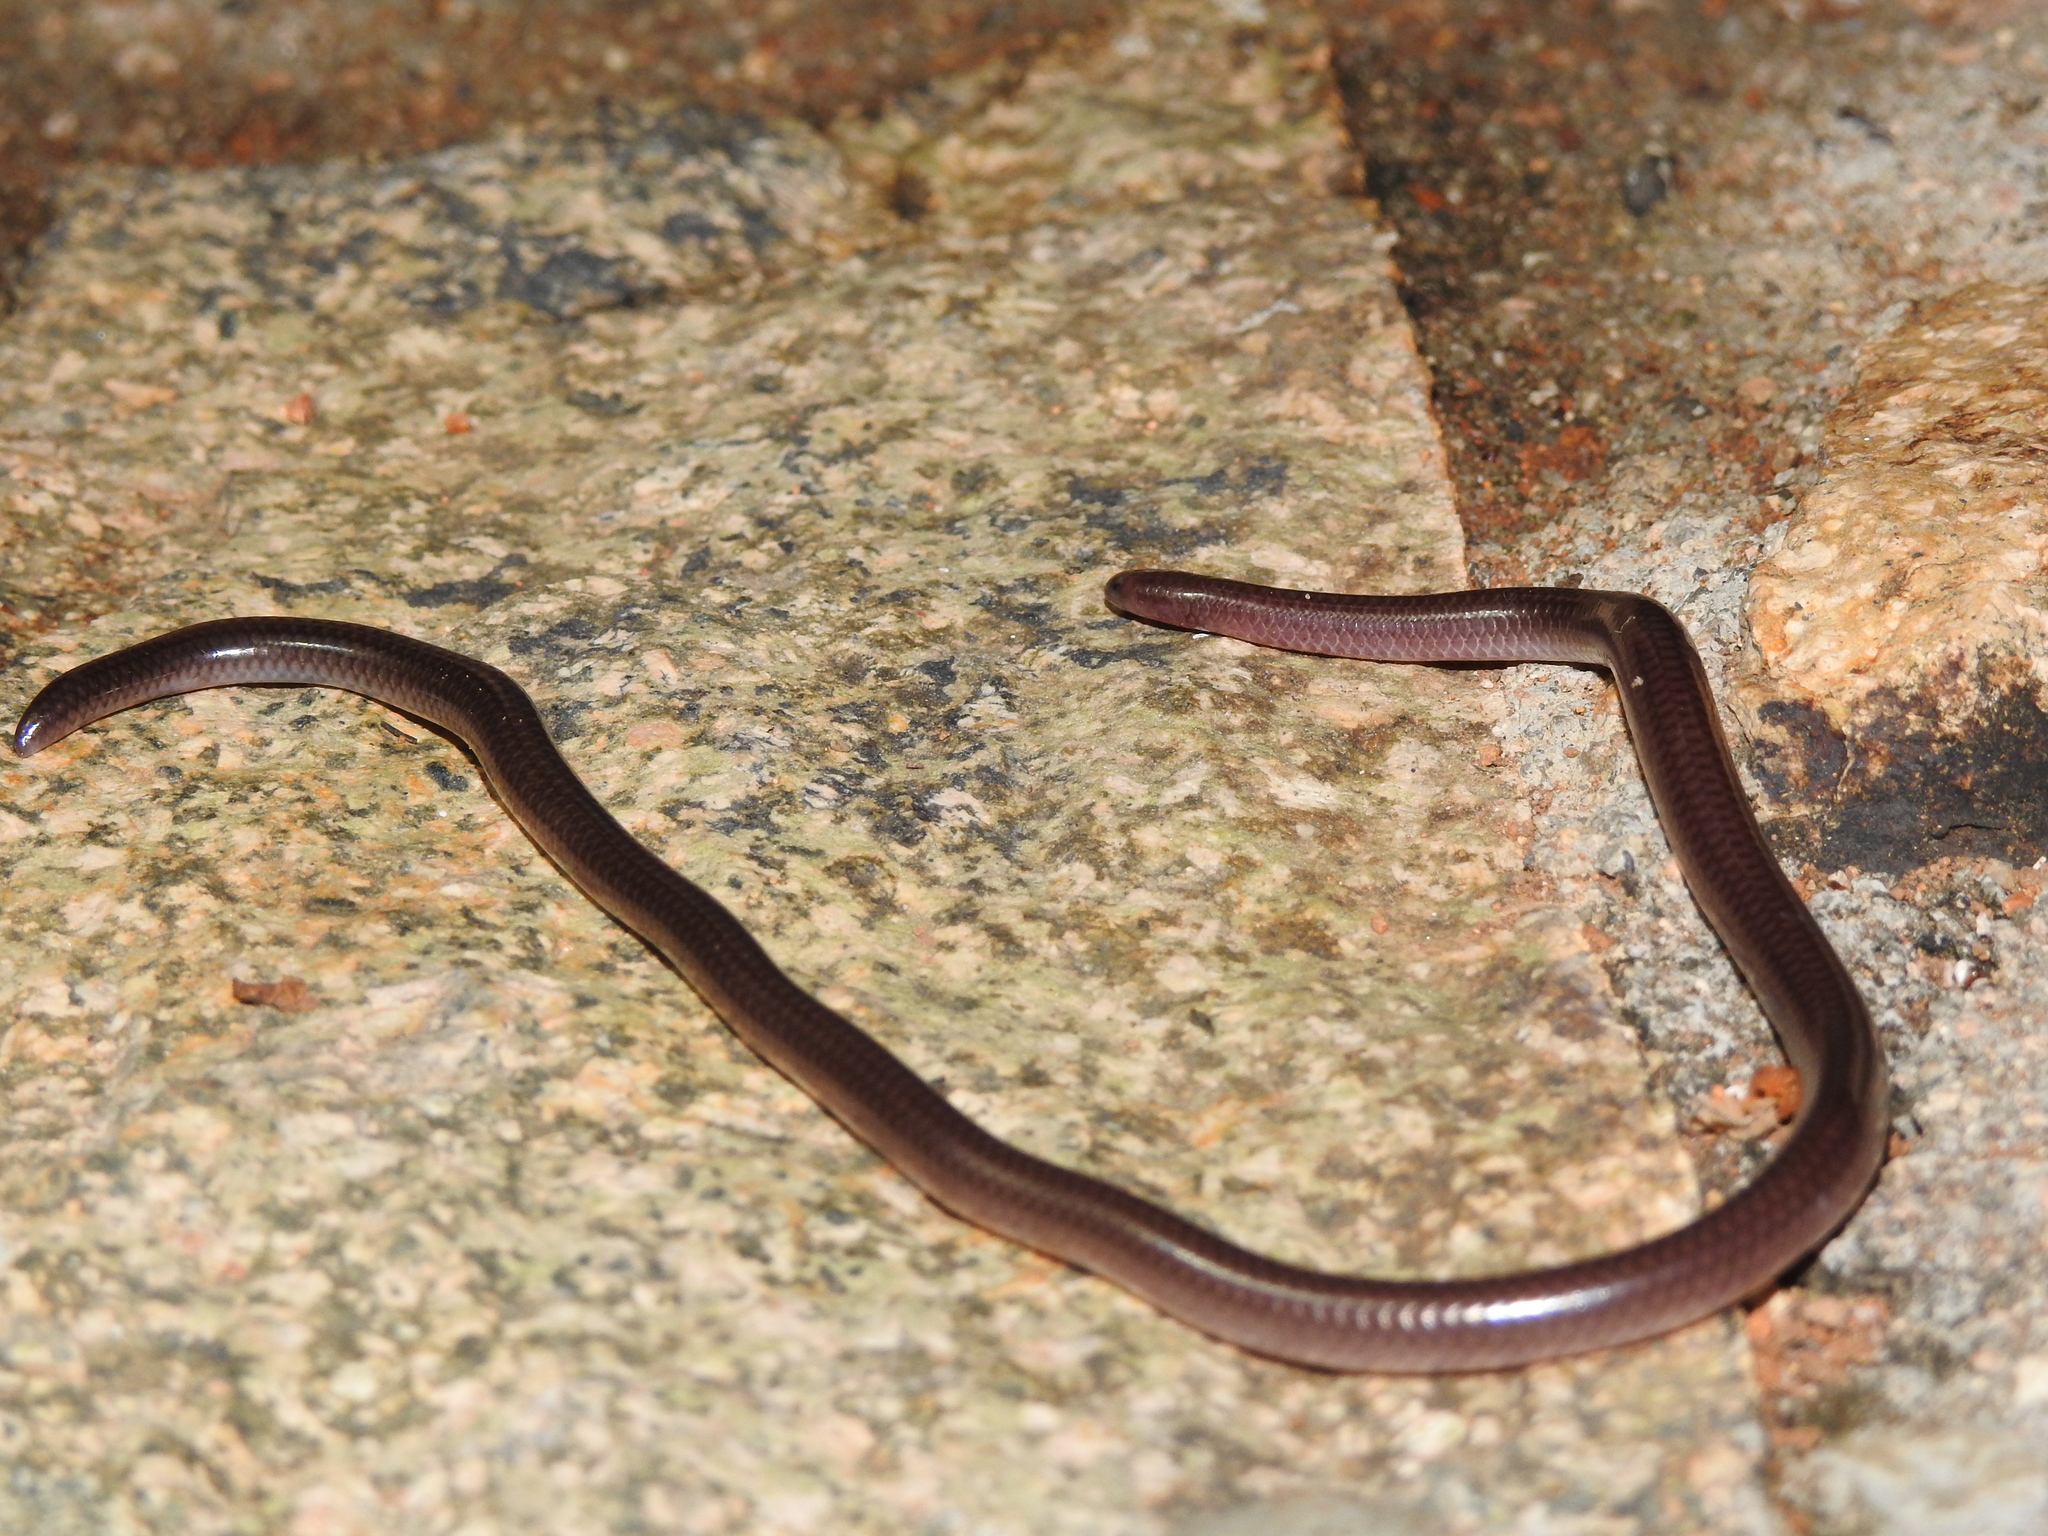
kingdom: Animalia
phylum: Chordata
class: Squamata
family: Leptotyphlopidae
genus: Rena
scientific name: Rena humilis
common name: Western threadsnake
